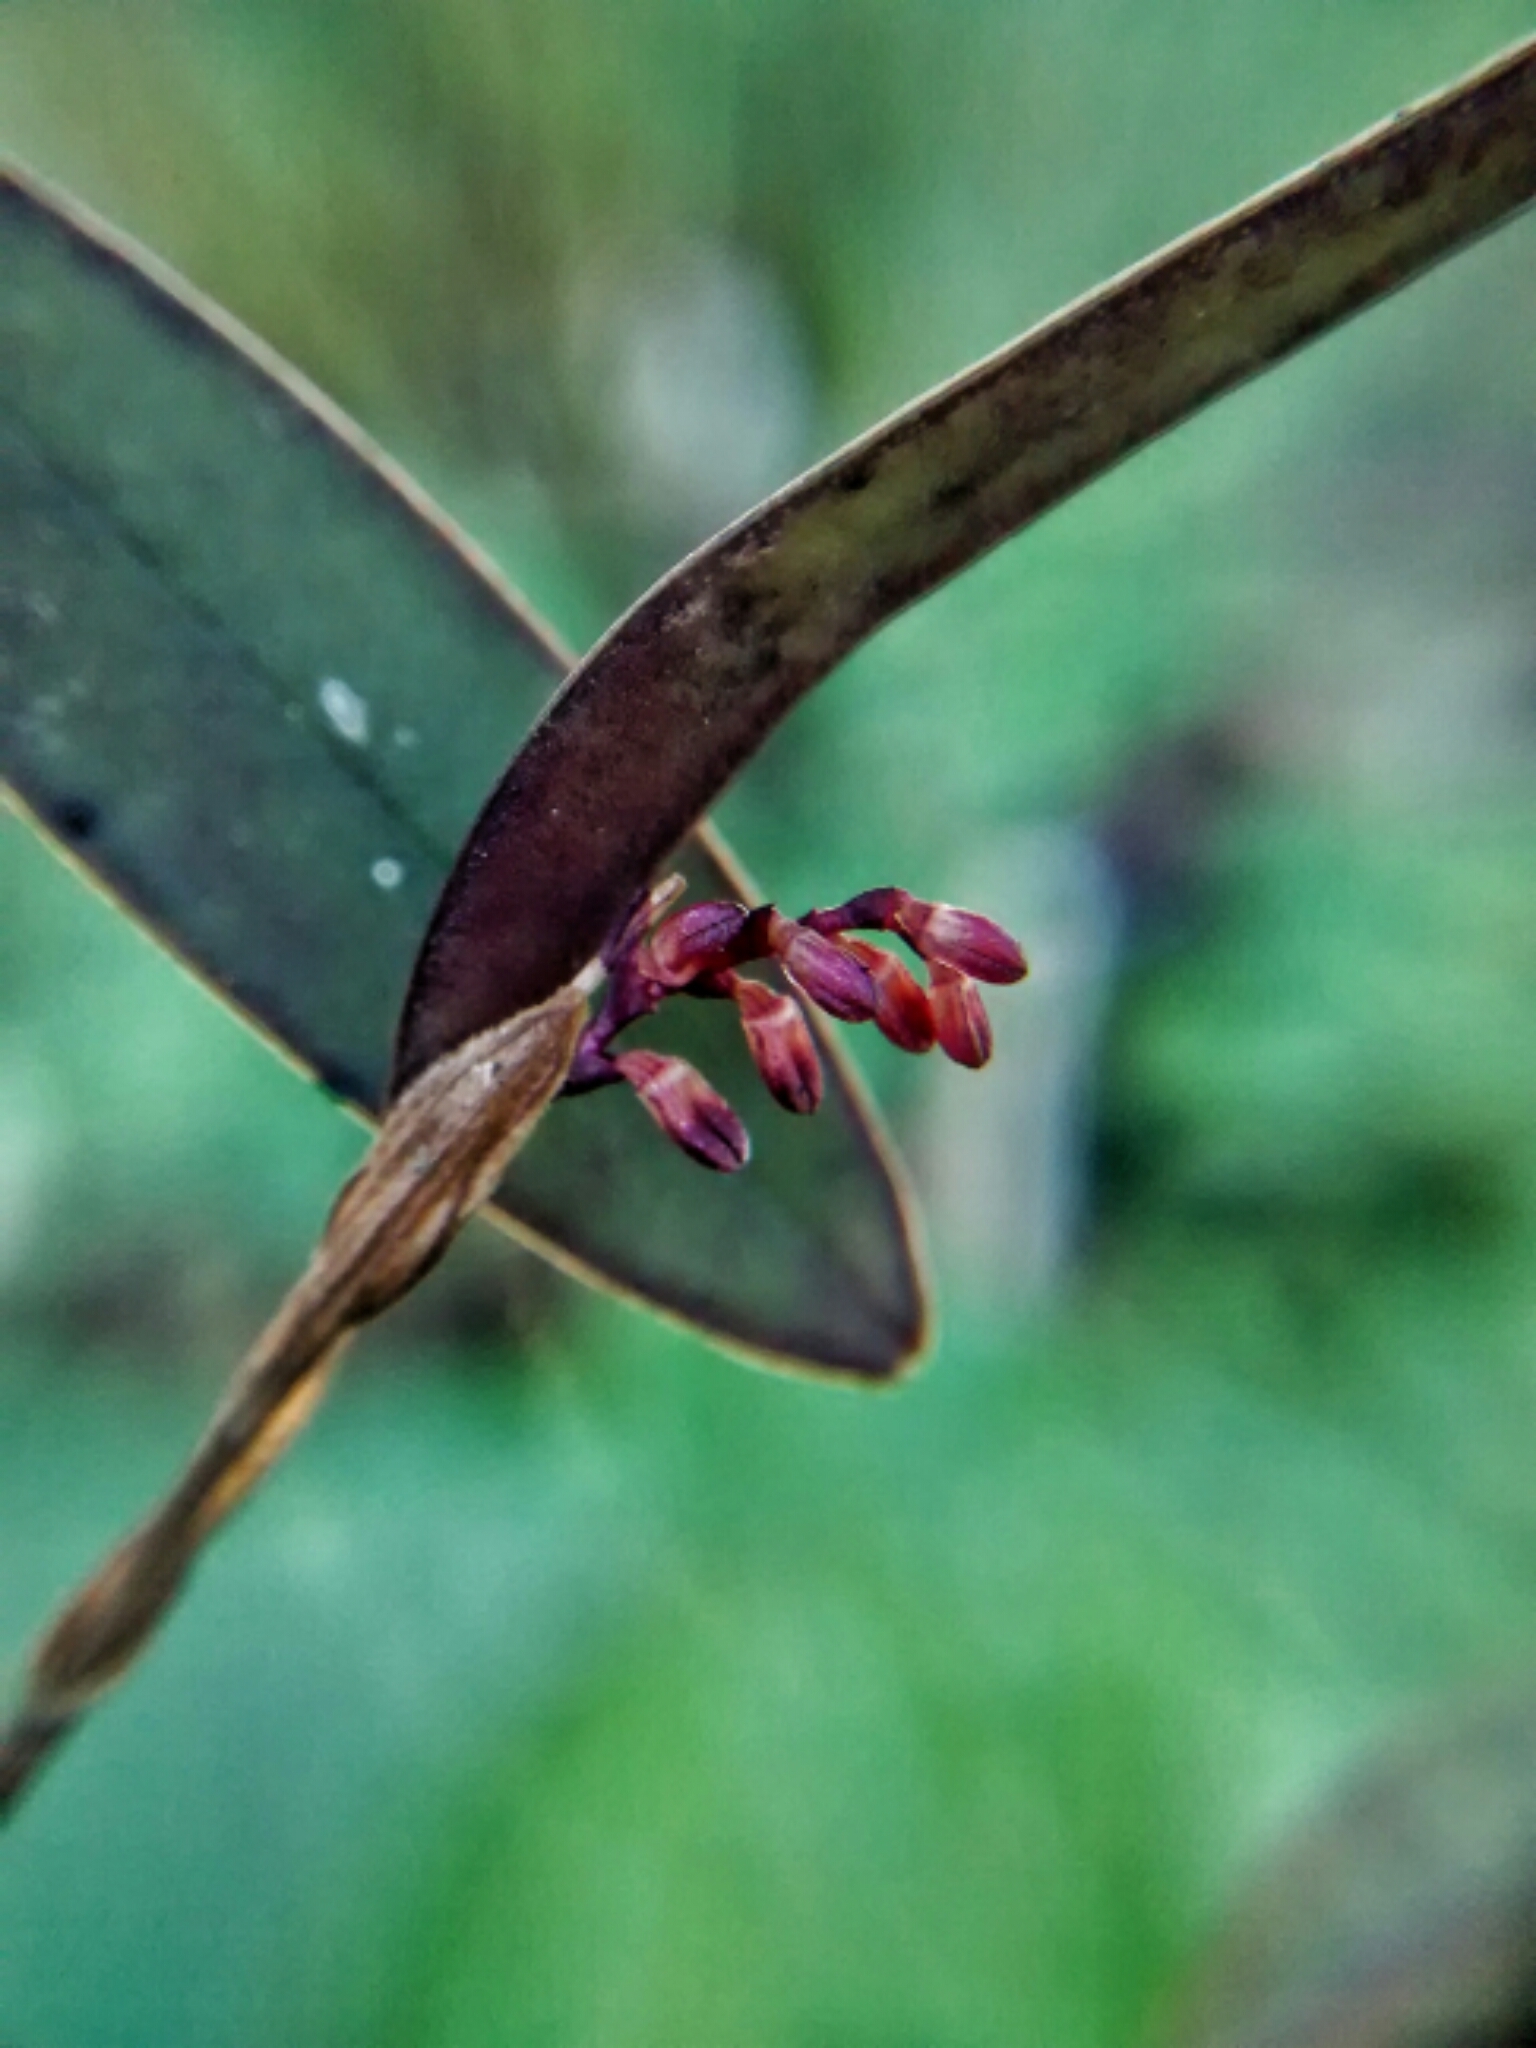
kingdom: Plantae
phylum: Tracheophyta
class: Liliopsida
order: Asparagales
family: Orchidaceae
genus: Trichosalpinx
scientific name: Trichosalpinx ciliaris
